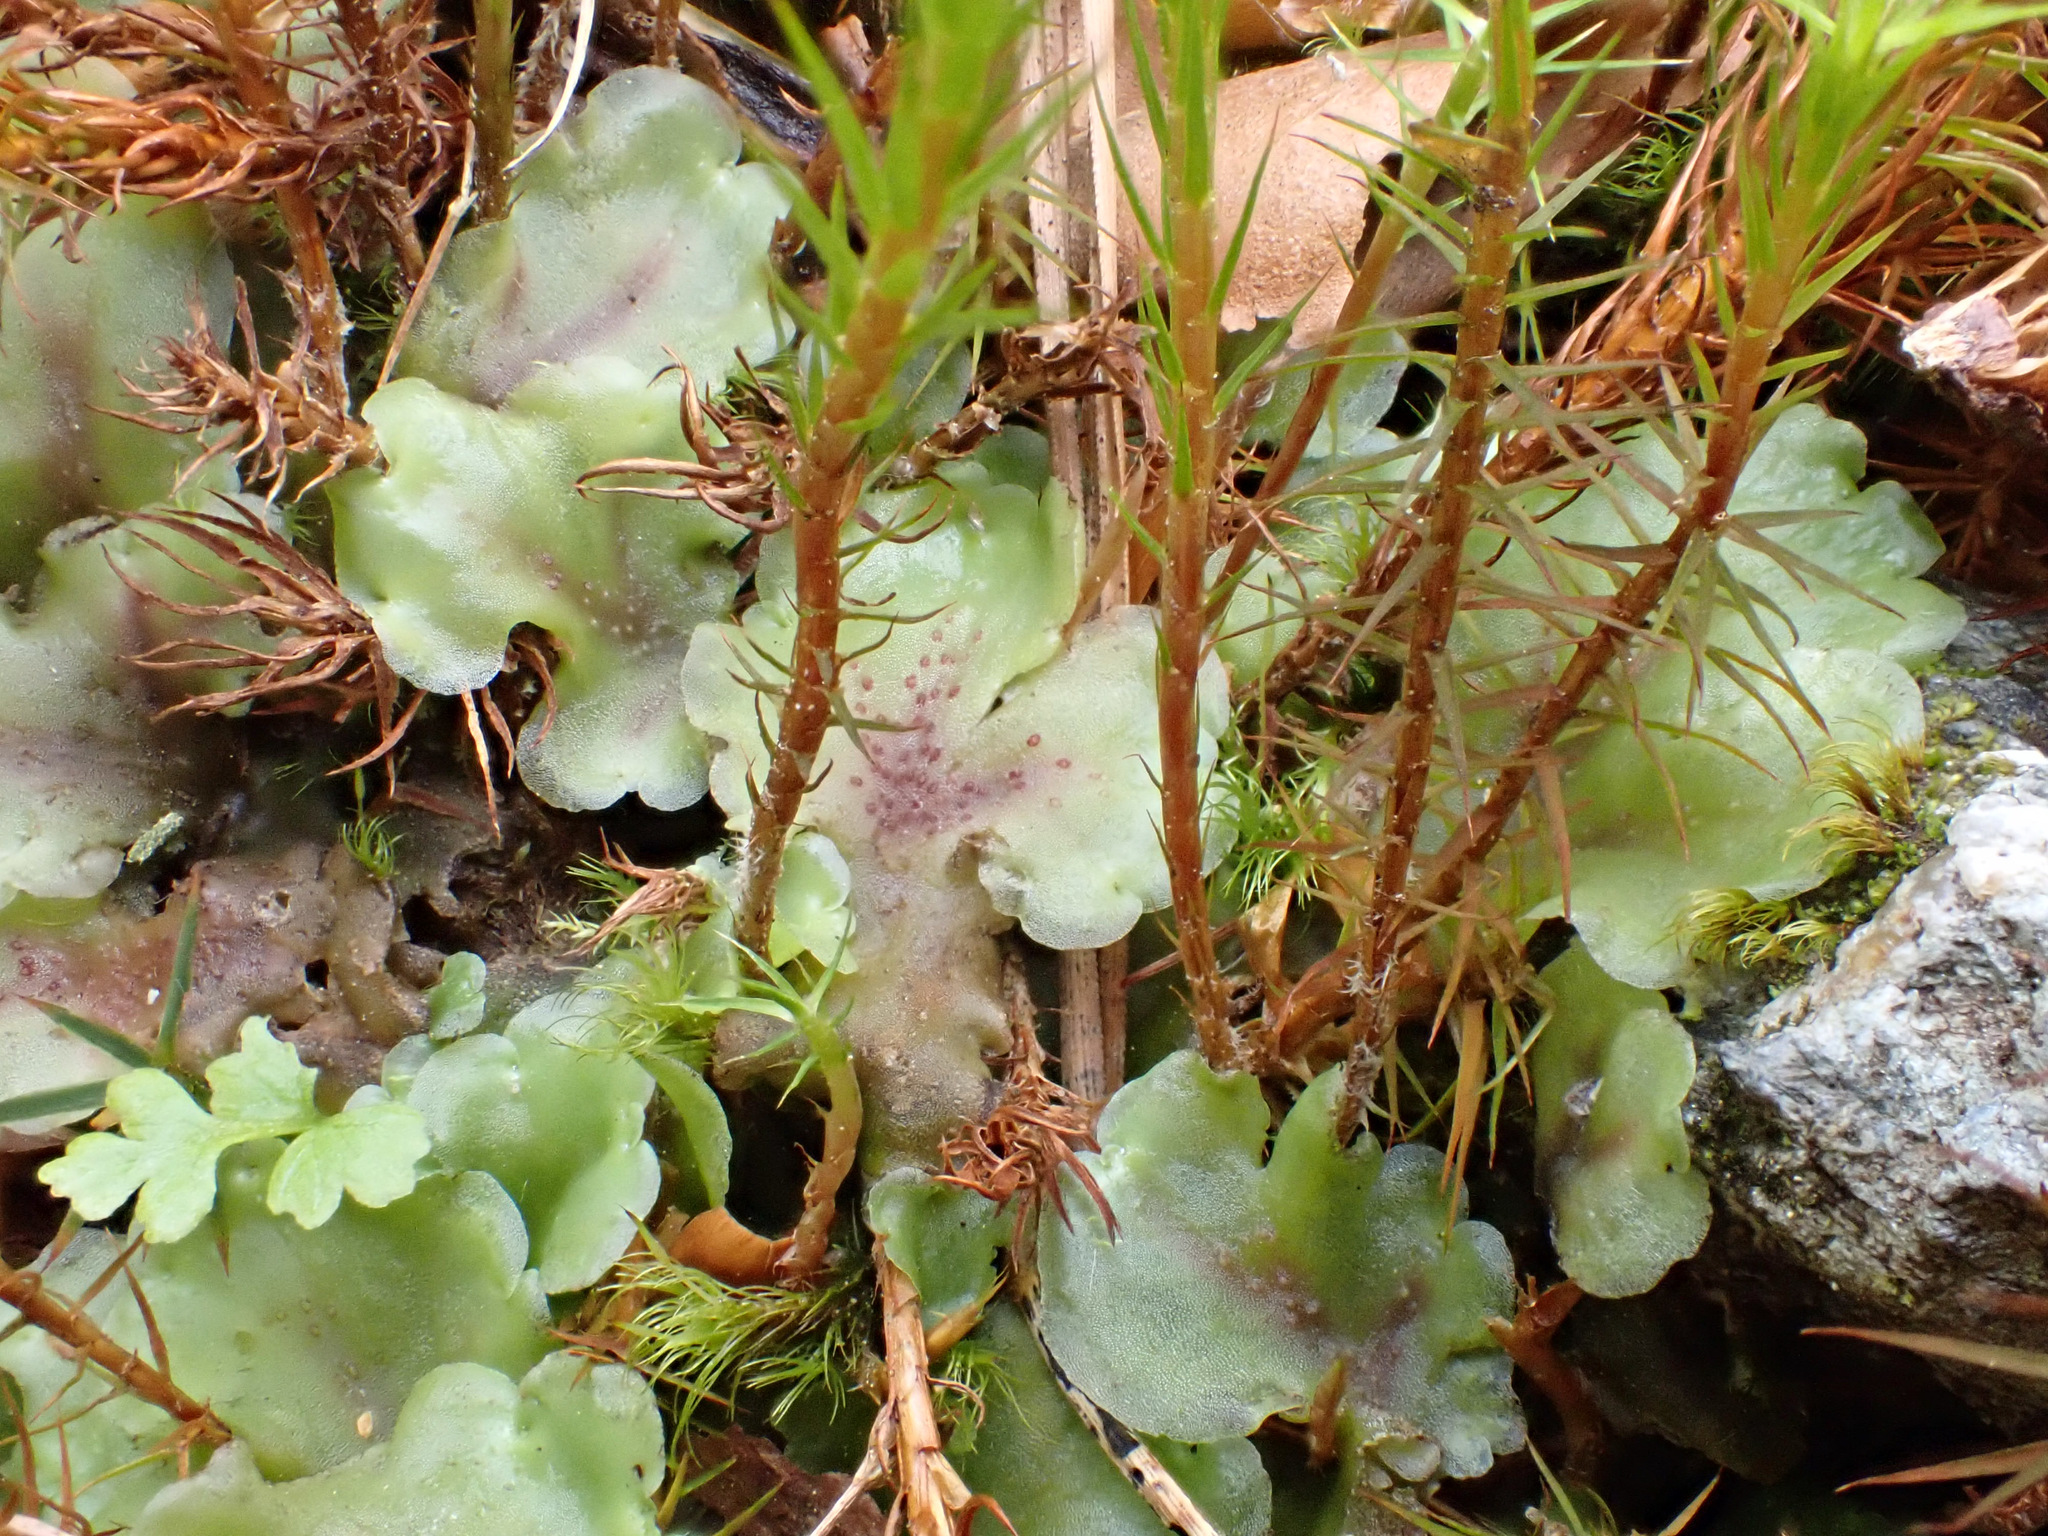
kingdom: Plantae
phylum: Marchantiophyta
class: Jungermanniopsida
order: Pelliales
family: Pelliaceae
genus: Pellia
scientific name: Pellia neesiana
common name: Nees  pellia
